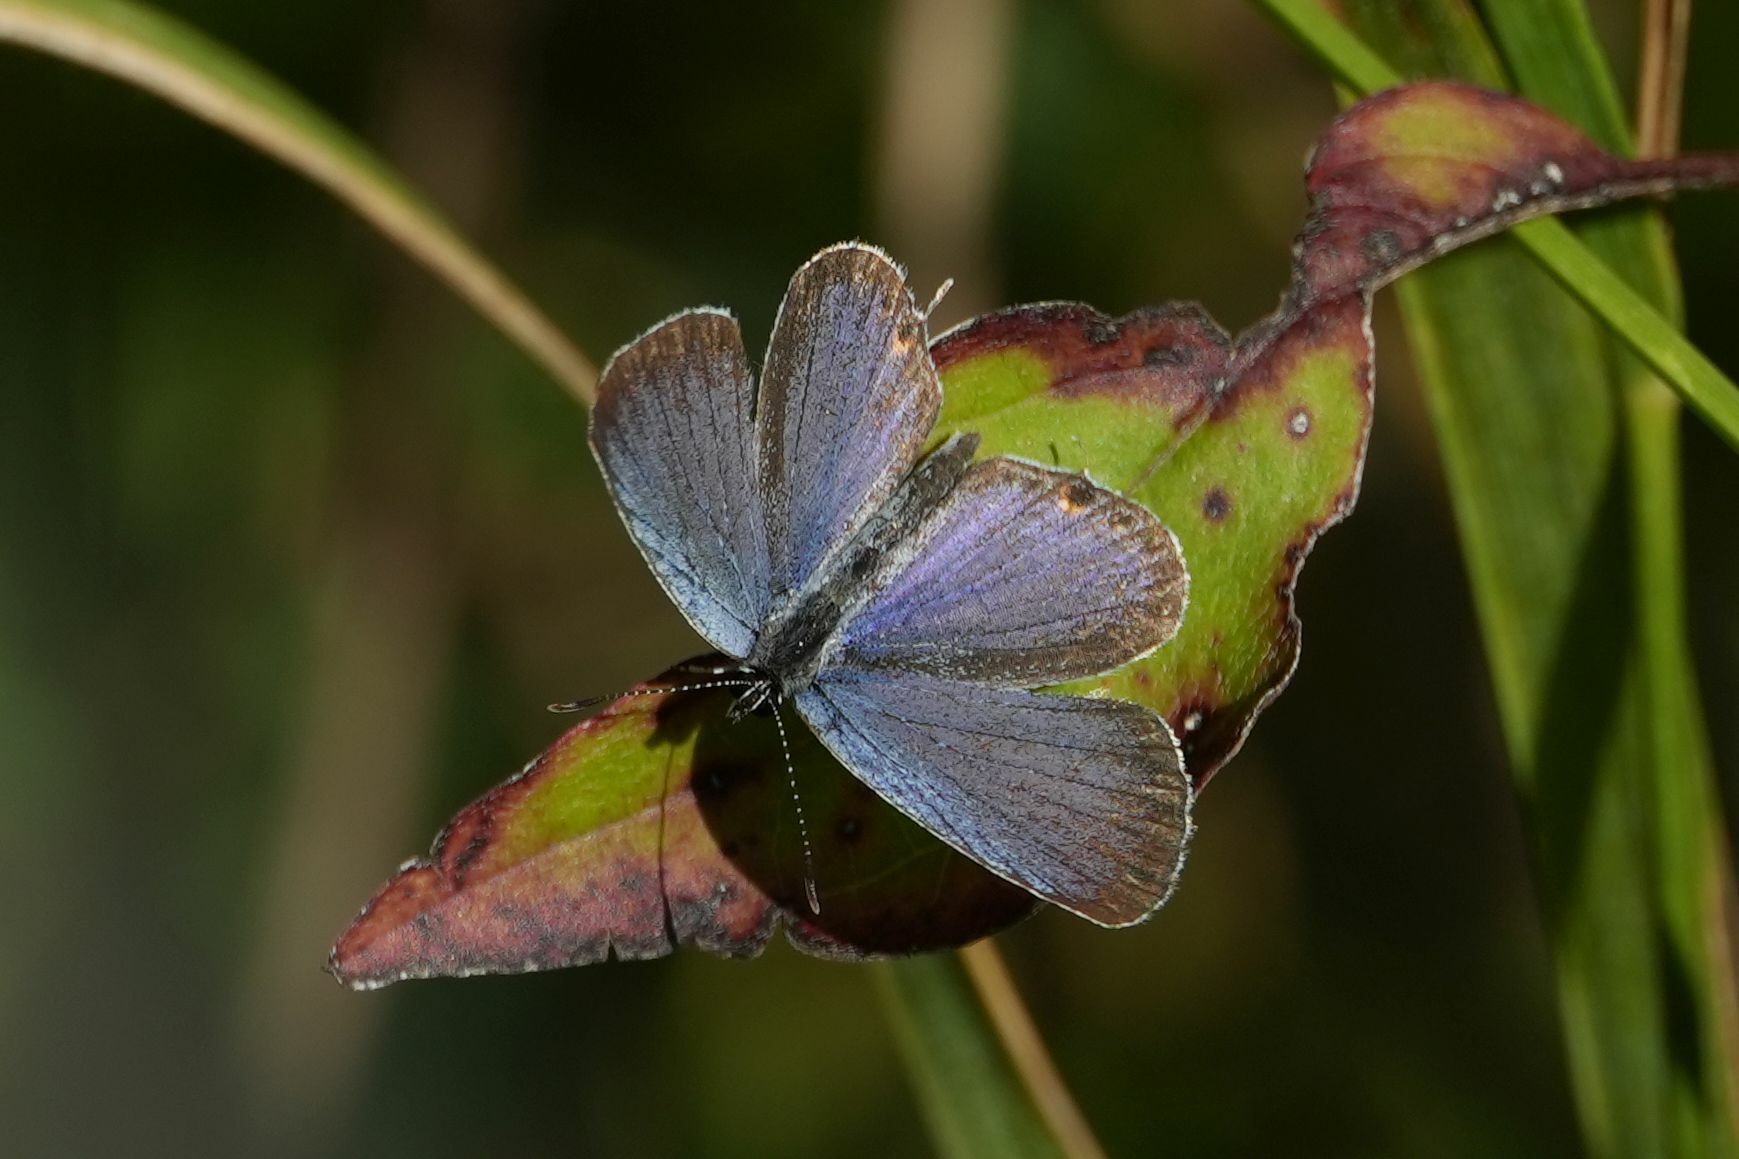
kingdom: Animalia
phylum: Arthropoda
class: Insecta
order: Lepidoptera
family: Lycaenidae
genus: Elkalyce
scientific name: Elkalyce comyntas
